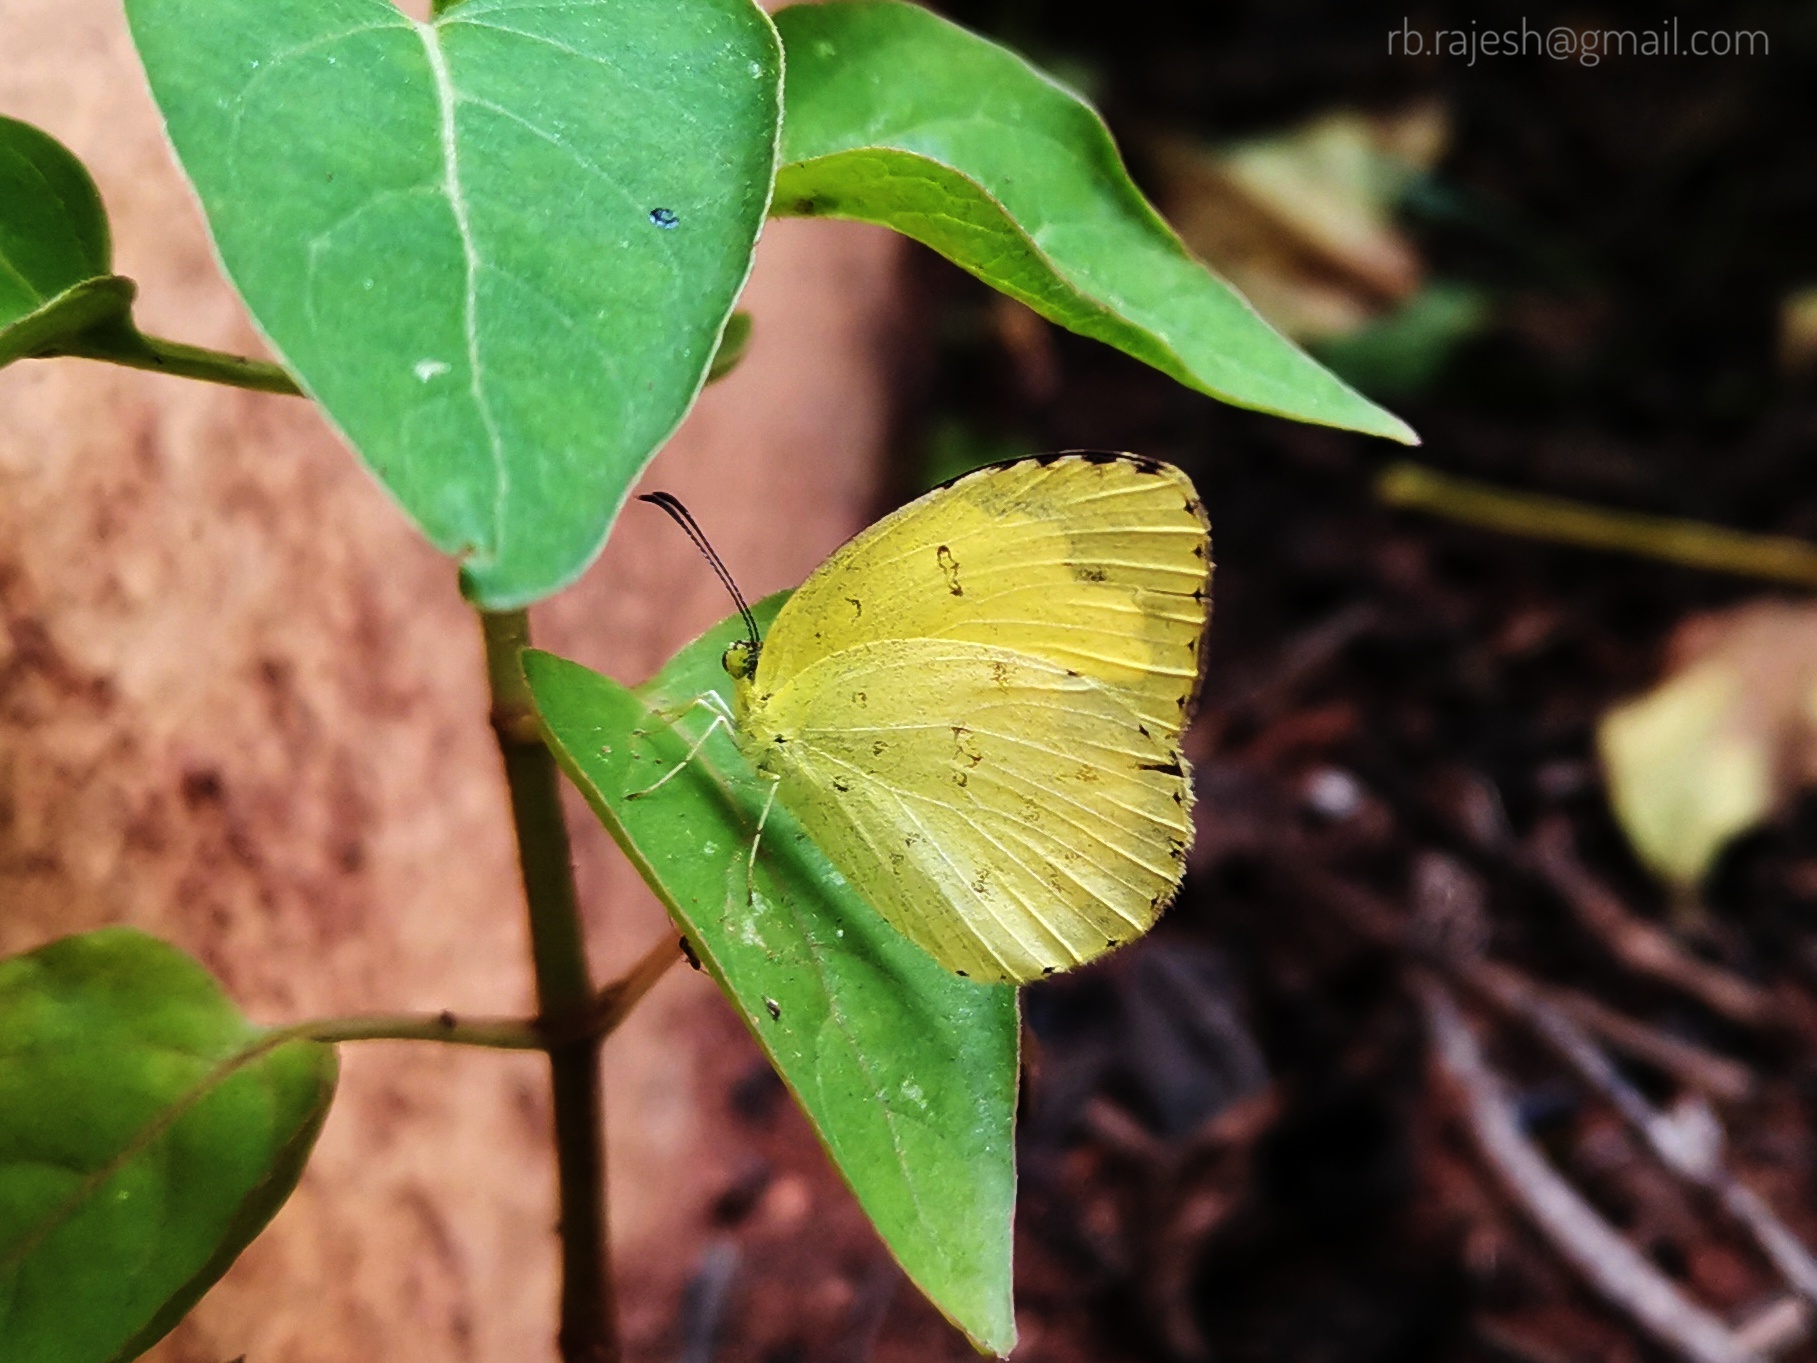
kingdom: Animalia
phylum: Arthropoda
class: Insecta
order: Lepidoptera
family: Pieridae
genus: Eurema
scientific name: Eurema hecabe
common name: Pale grass yellow
